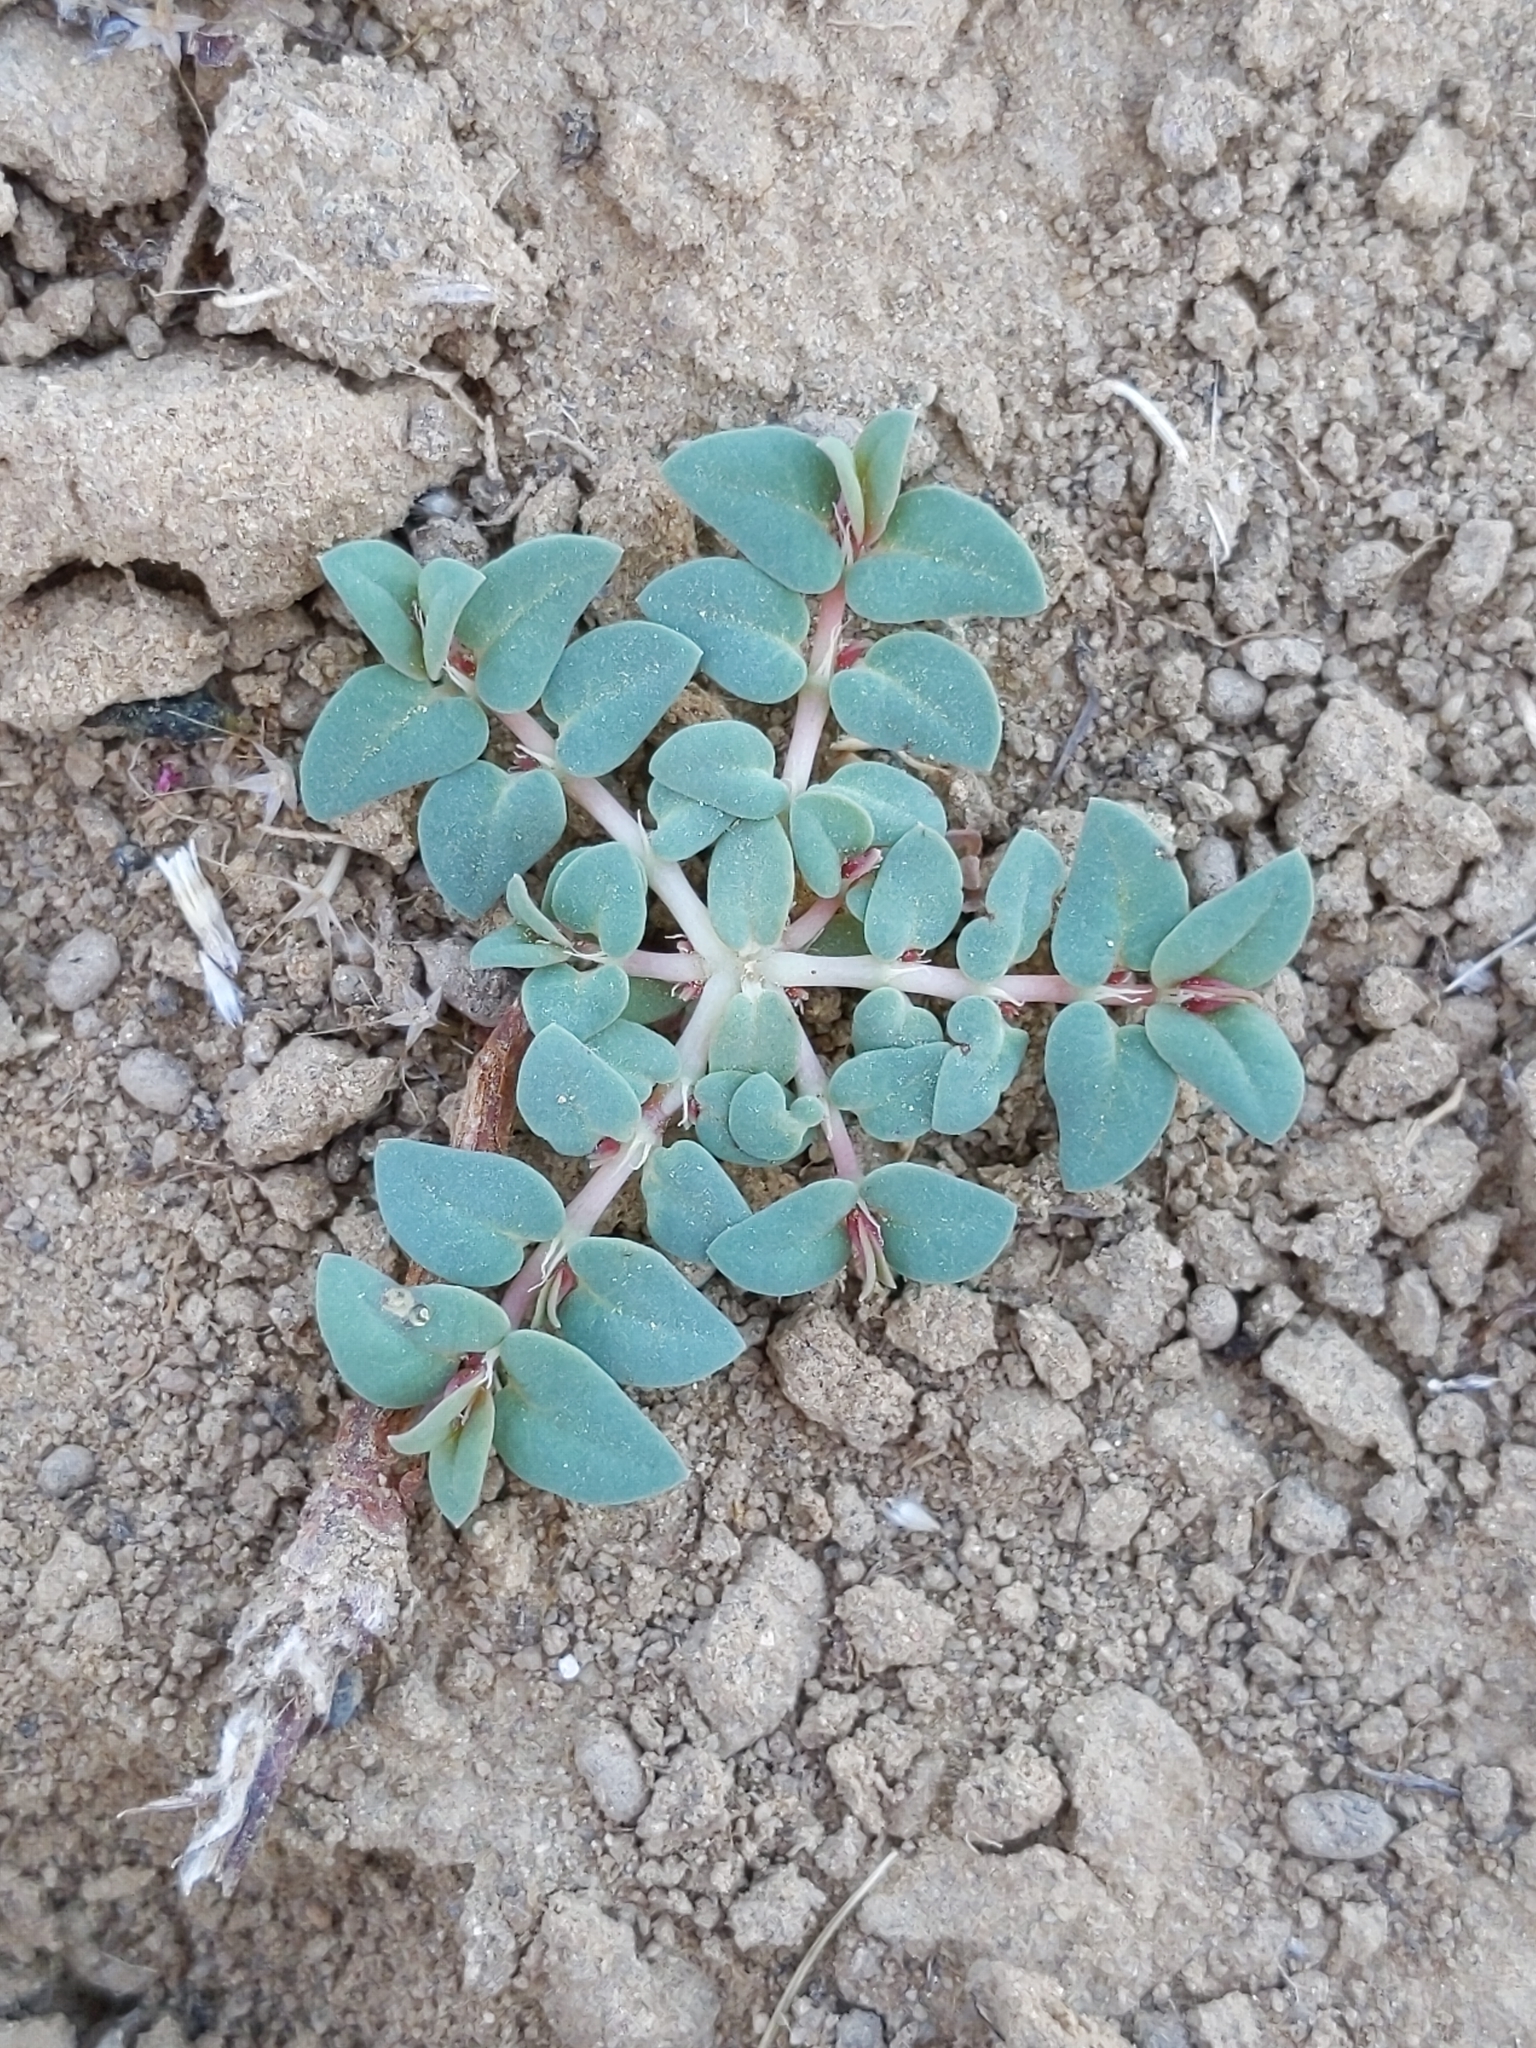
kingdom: Plantae
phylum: Tracheophyta
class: Magnoliopsida
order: Malpighiales
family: Euphorbiaceae
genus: Euphorbia
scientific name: Euphorbia ocellata
